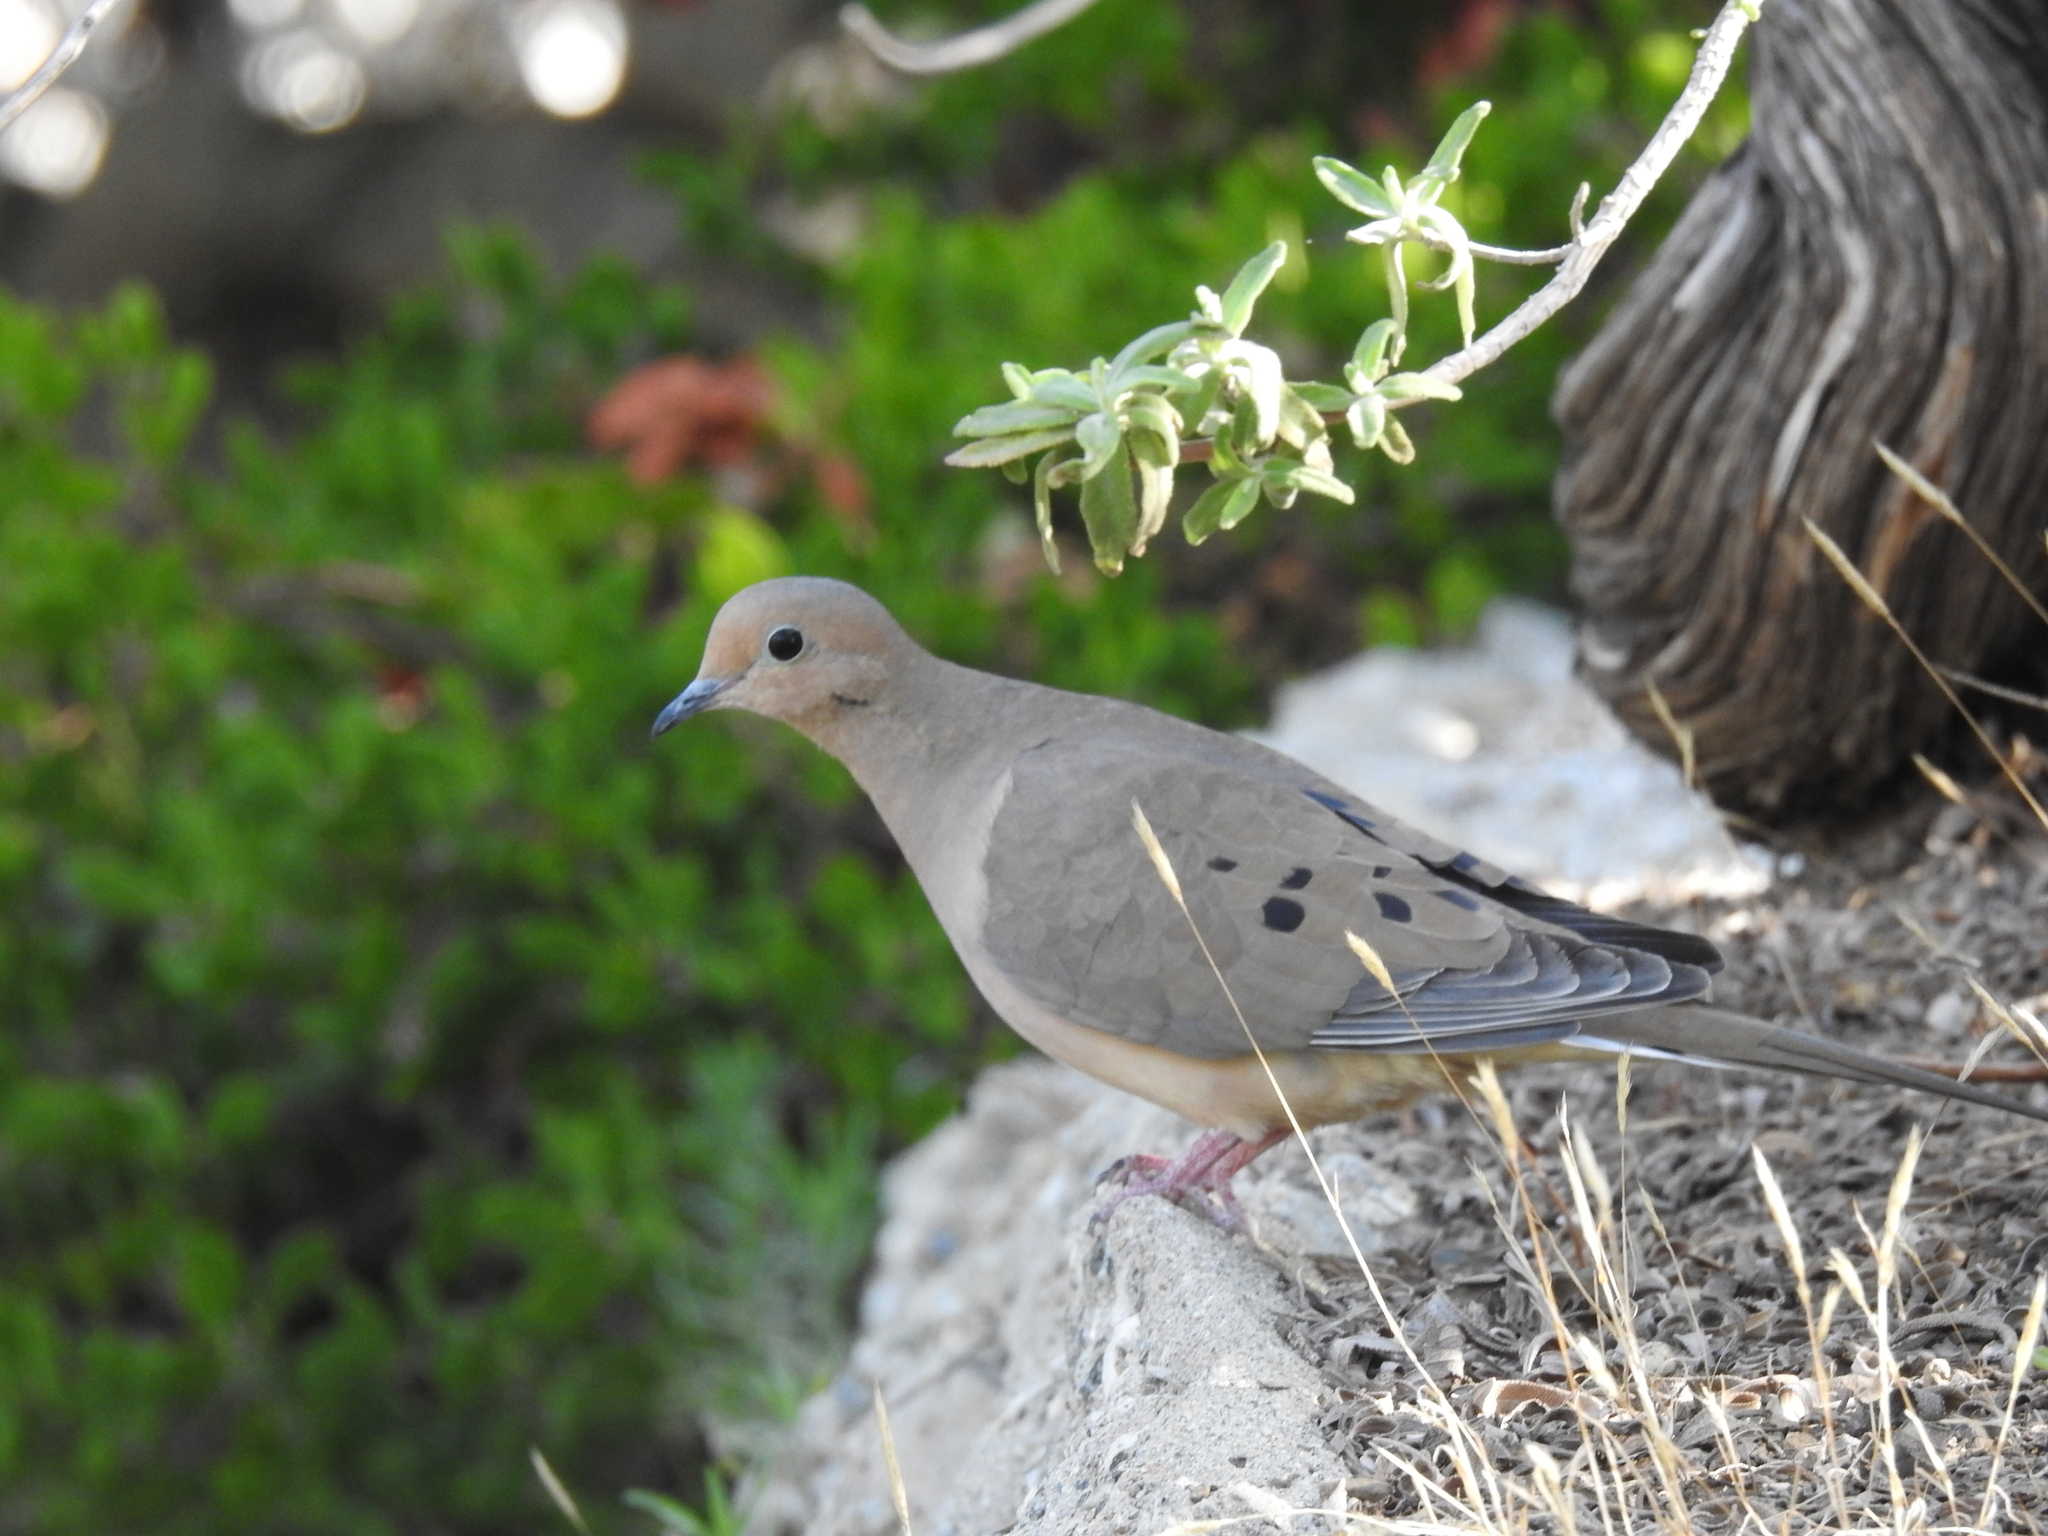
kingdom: Animalia
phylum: Chordata
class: Aves
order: Columbiformes
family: Columbidae
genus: Zenaida
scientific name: Zenaida macroura
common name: Mourning dove
